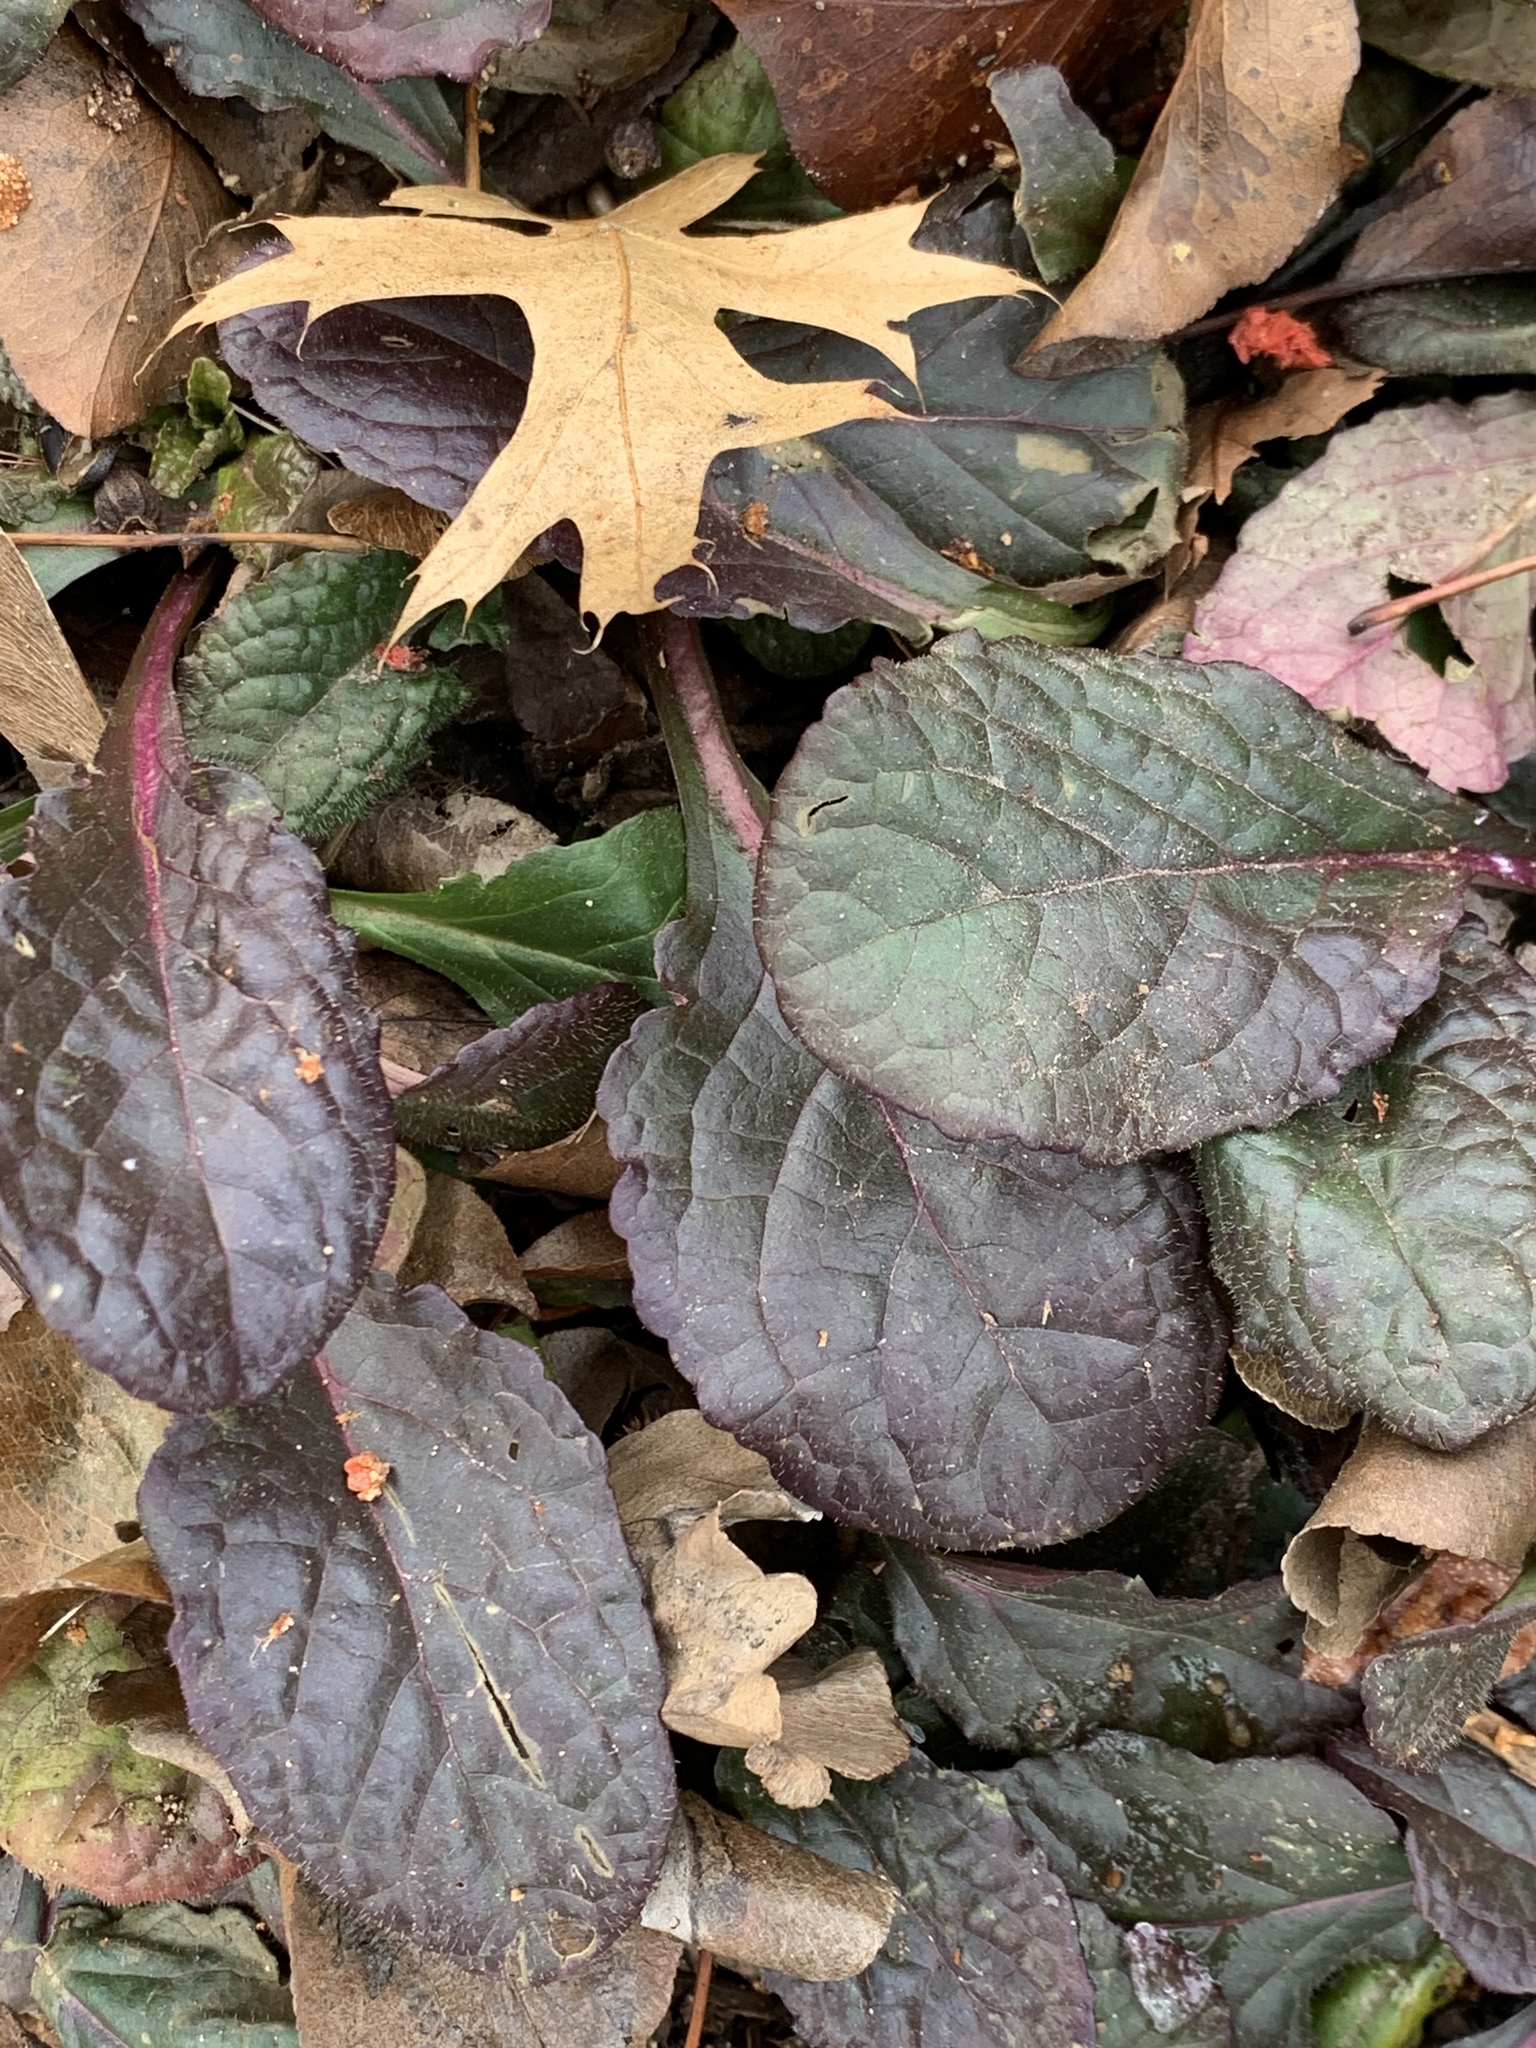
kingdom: Plantae
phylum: Tracheophyta
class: Magnoliopsida
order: Lamiales
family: Lamiaceae
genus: Ajuga
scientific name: Ajuga reptans
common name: Bugle
